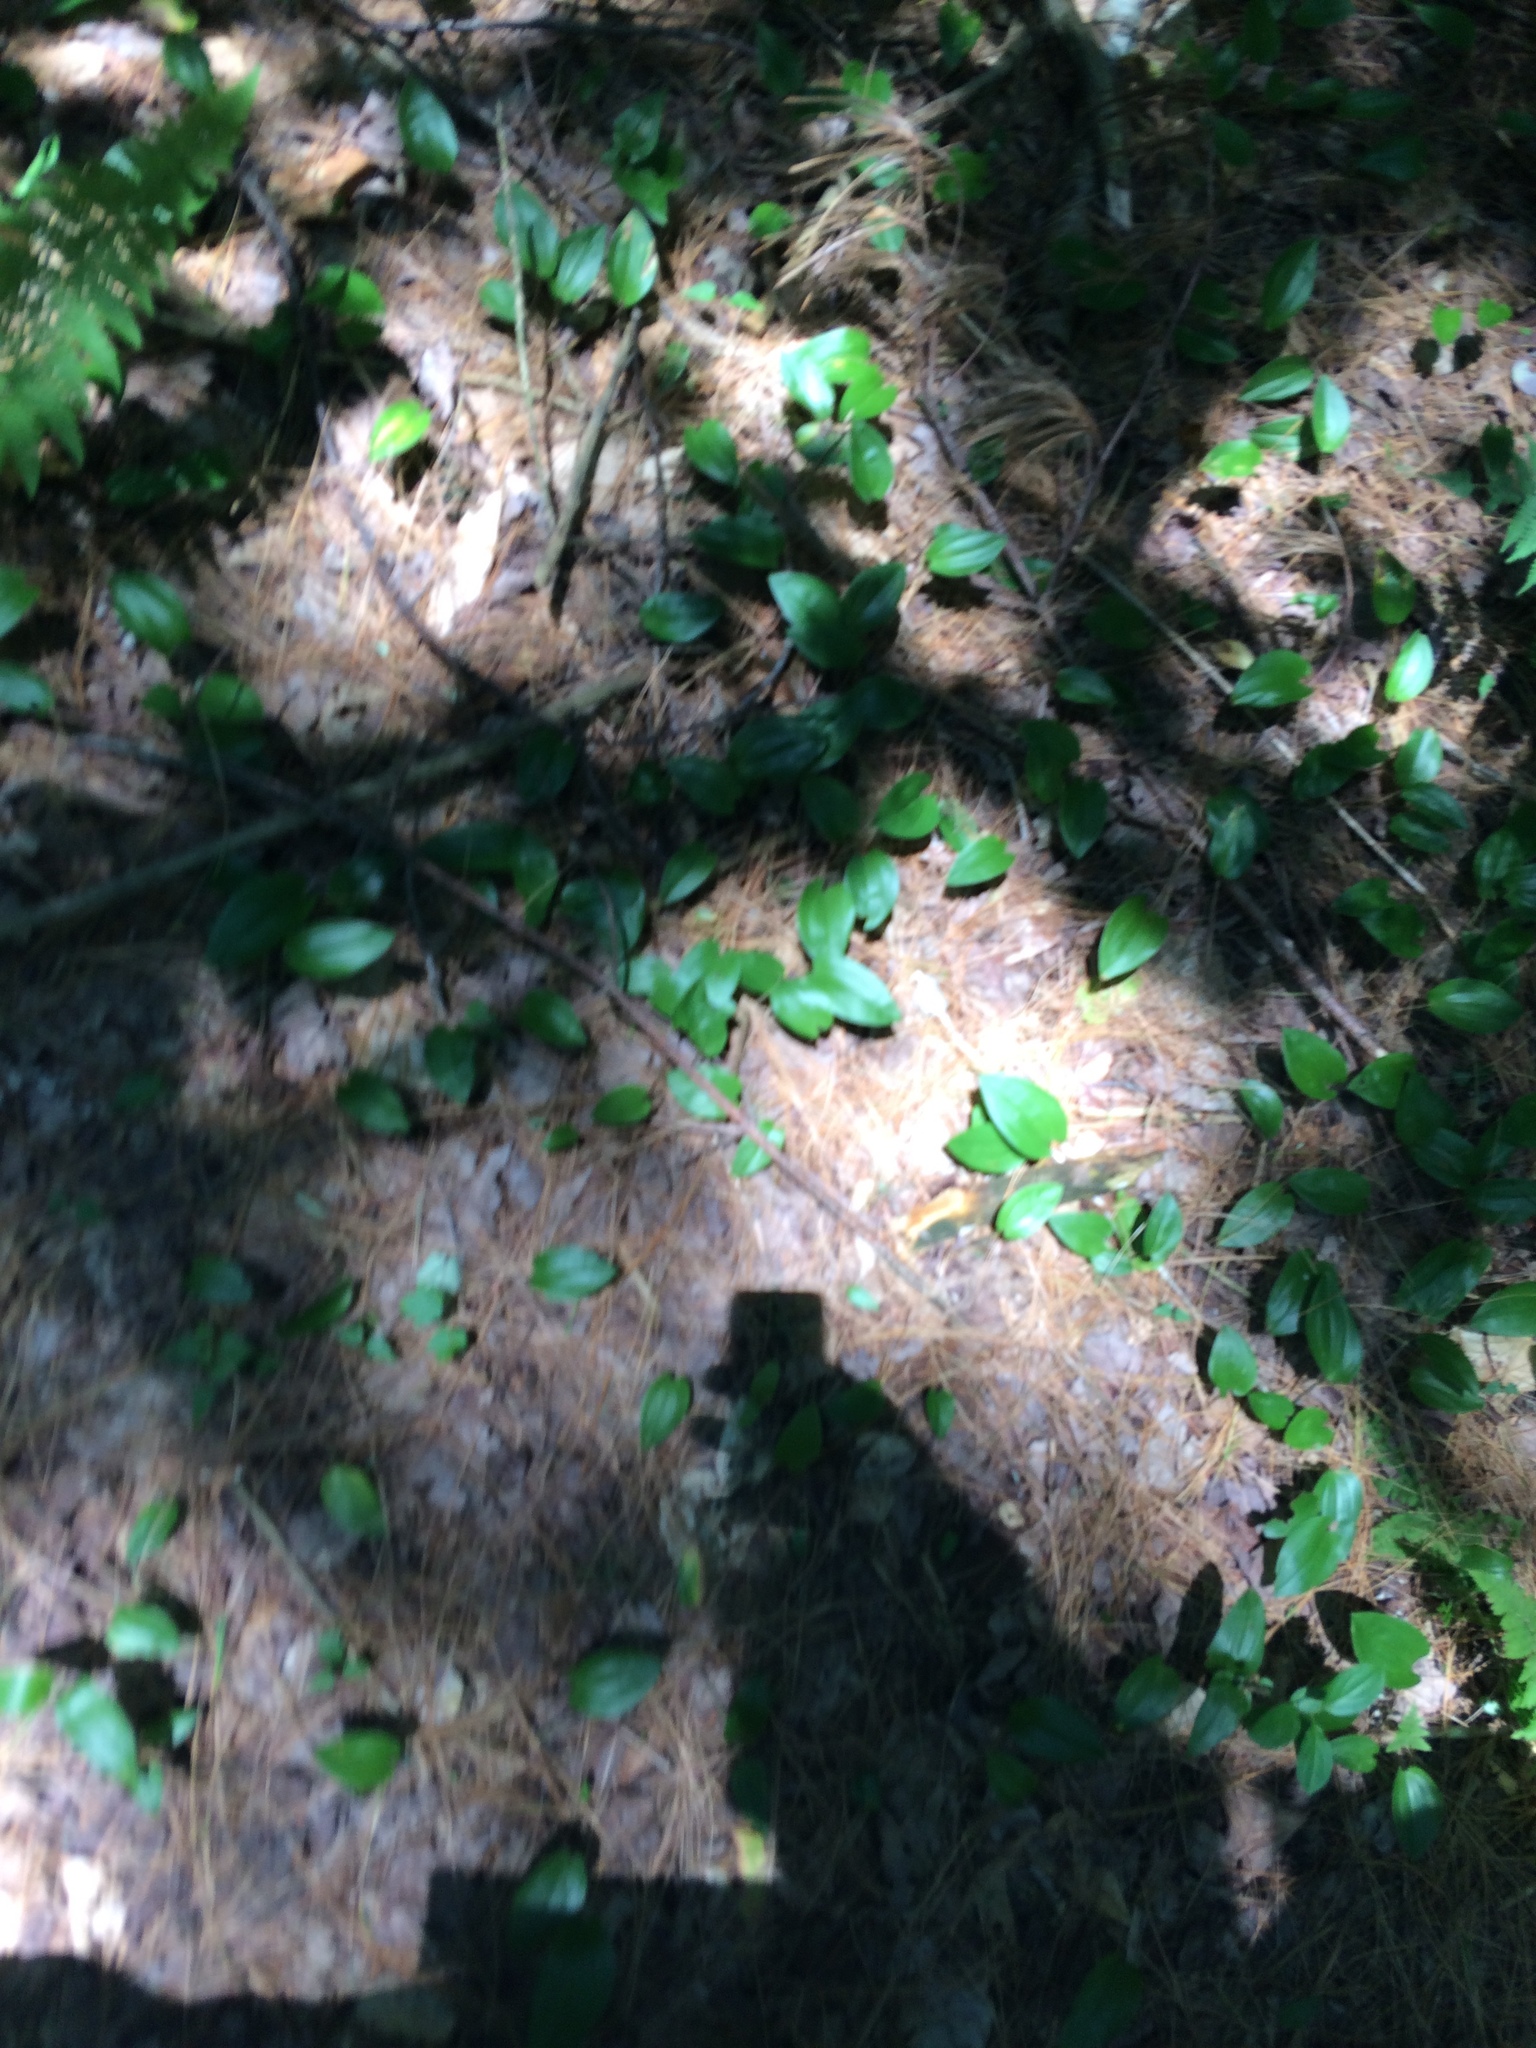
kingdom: Plantae
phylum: Tracheophyta
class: Liliopsida
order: Asparagales
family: Asparagaceae
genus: Maianthemum
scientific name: Maianthemum canadense
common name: False lily-of-the-valley
